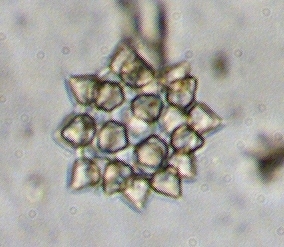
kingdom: Chromista
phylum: Ochrophyta
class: Xanthophyceae
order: Mischococcales
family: Botryochloridaceae
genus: Ducellieria
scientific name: Ducellieria chodatii
